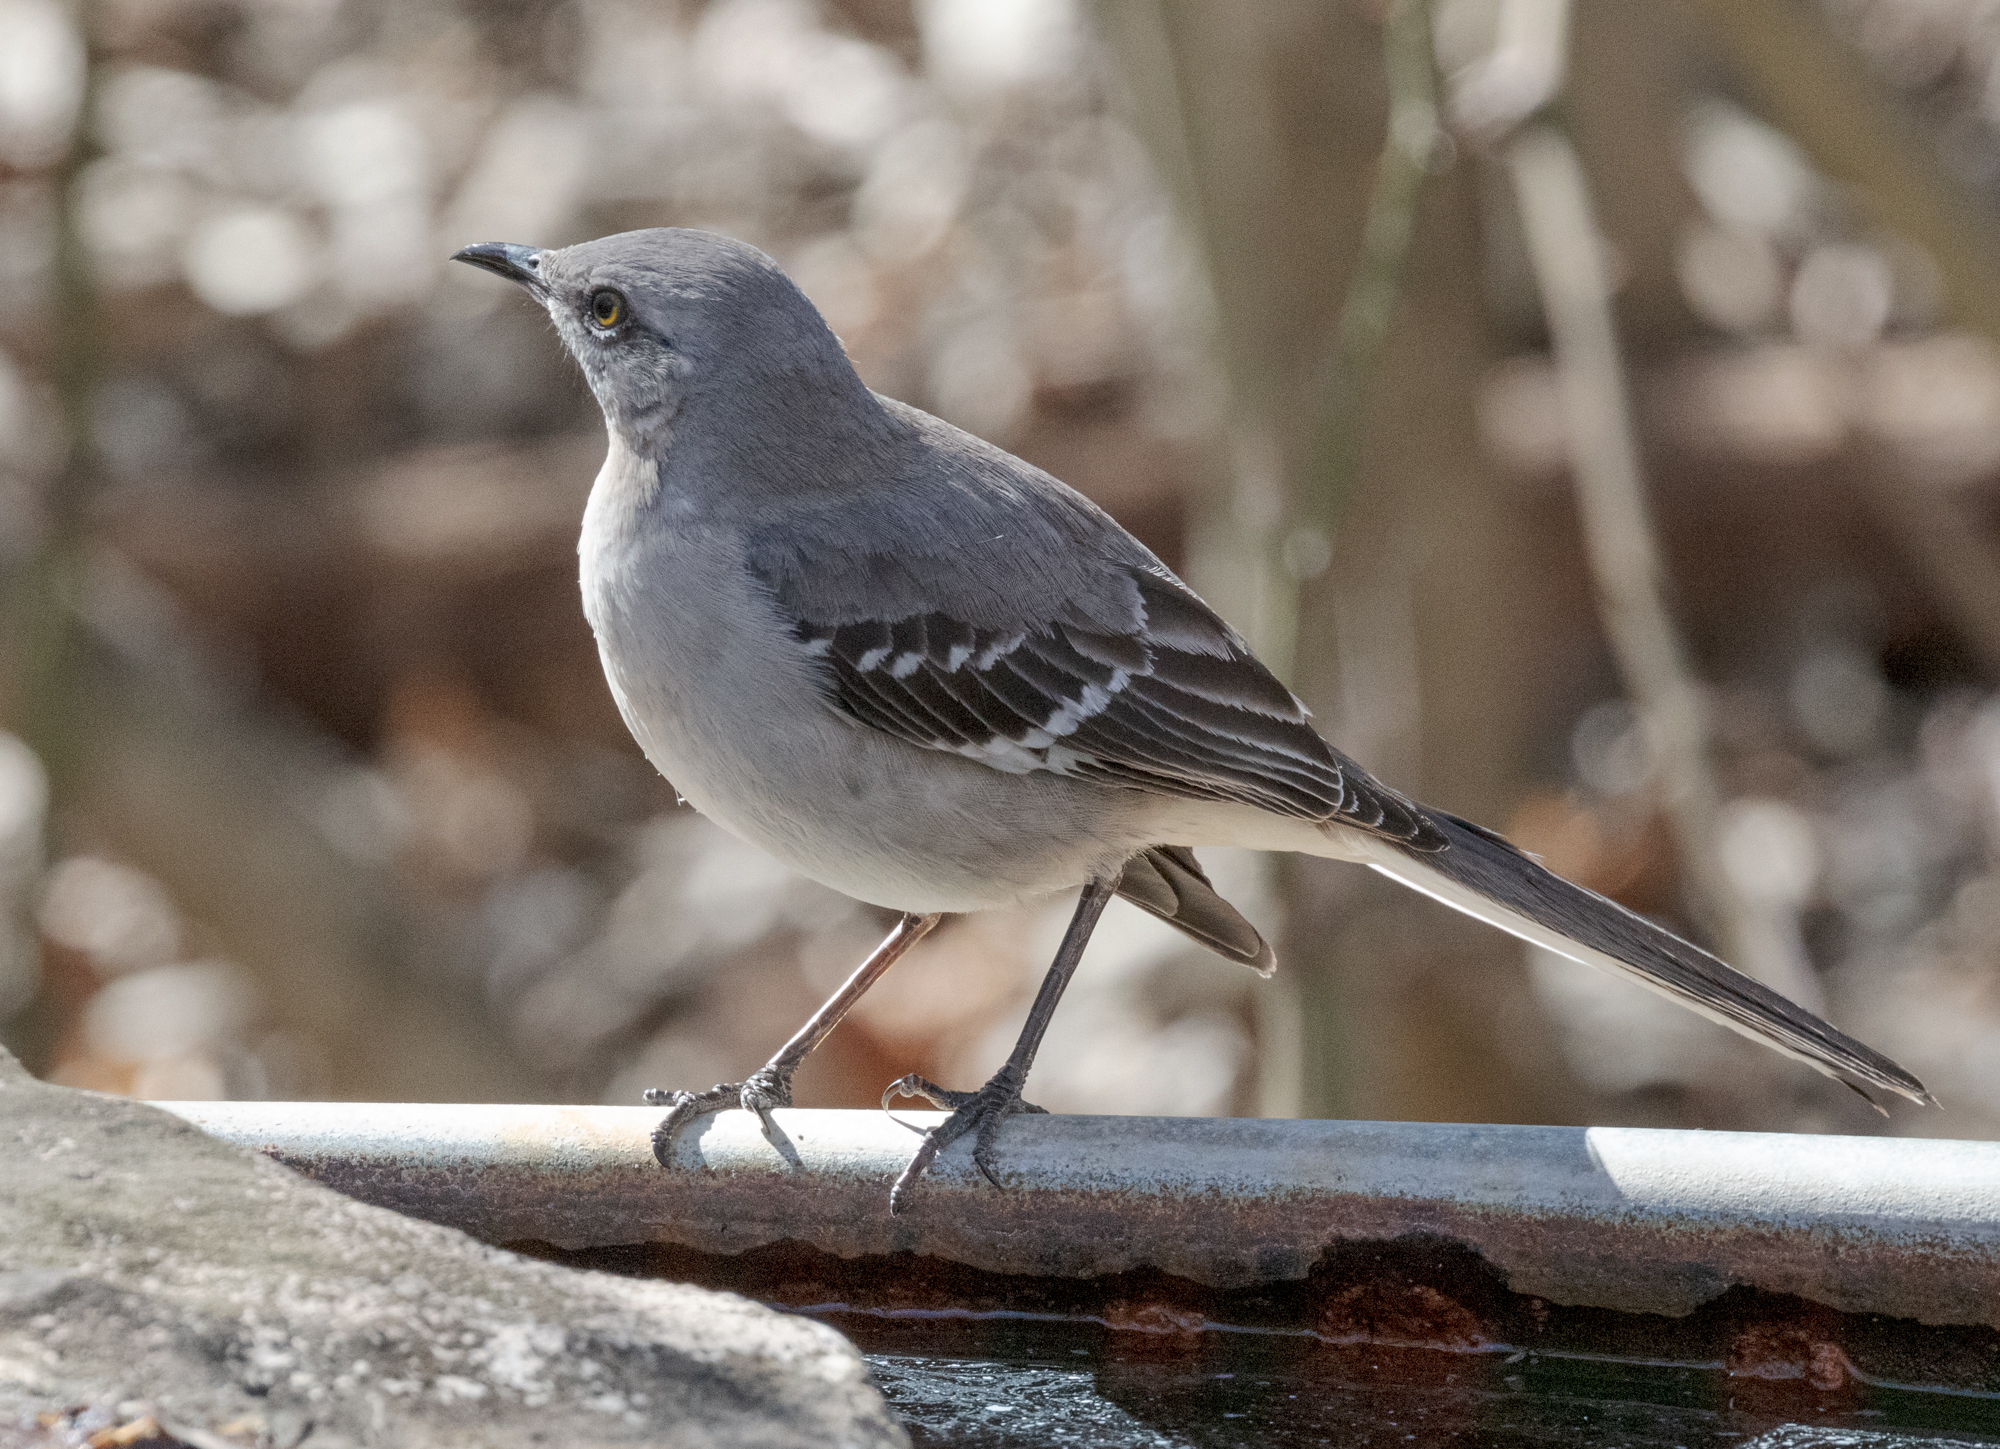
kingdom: Animalia
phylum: Chordata
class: Aves
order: Passeriformes
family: Mimidae
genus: Mimus
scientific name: Mimus polyglottos
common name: Northern mockingbird
